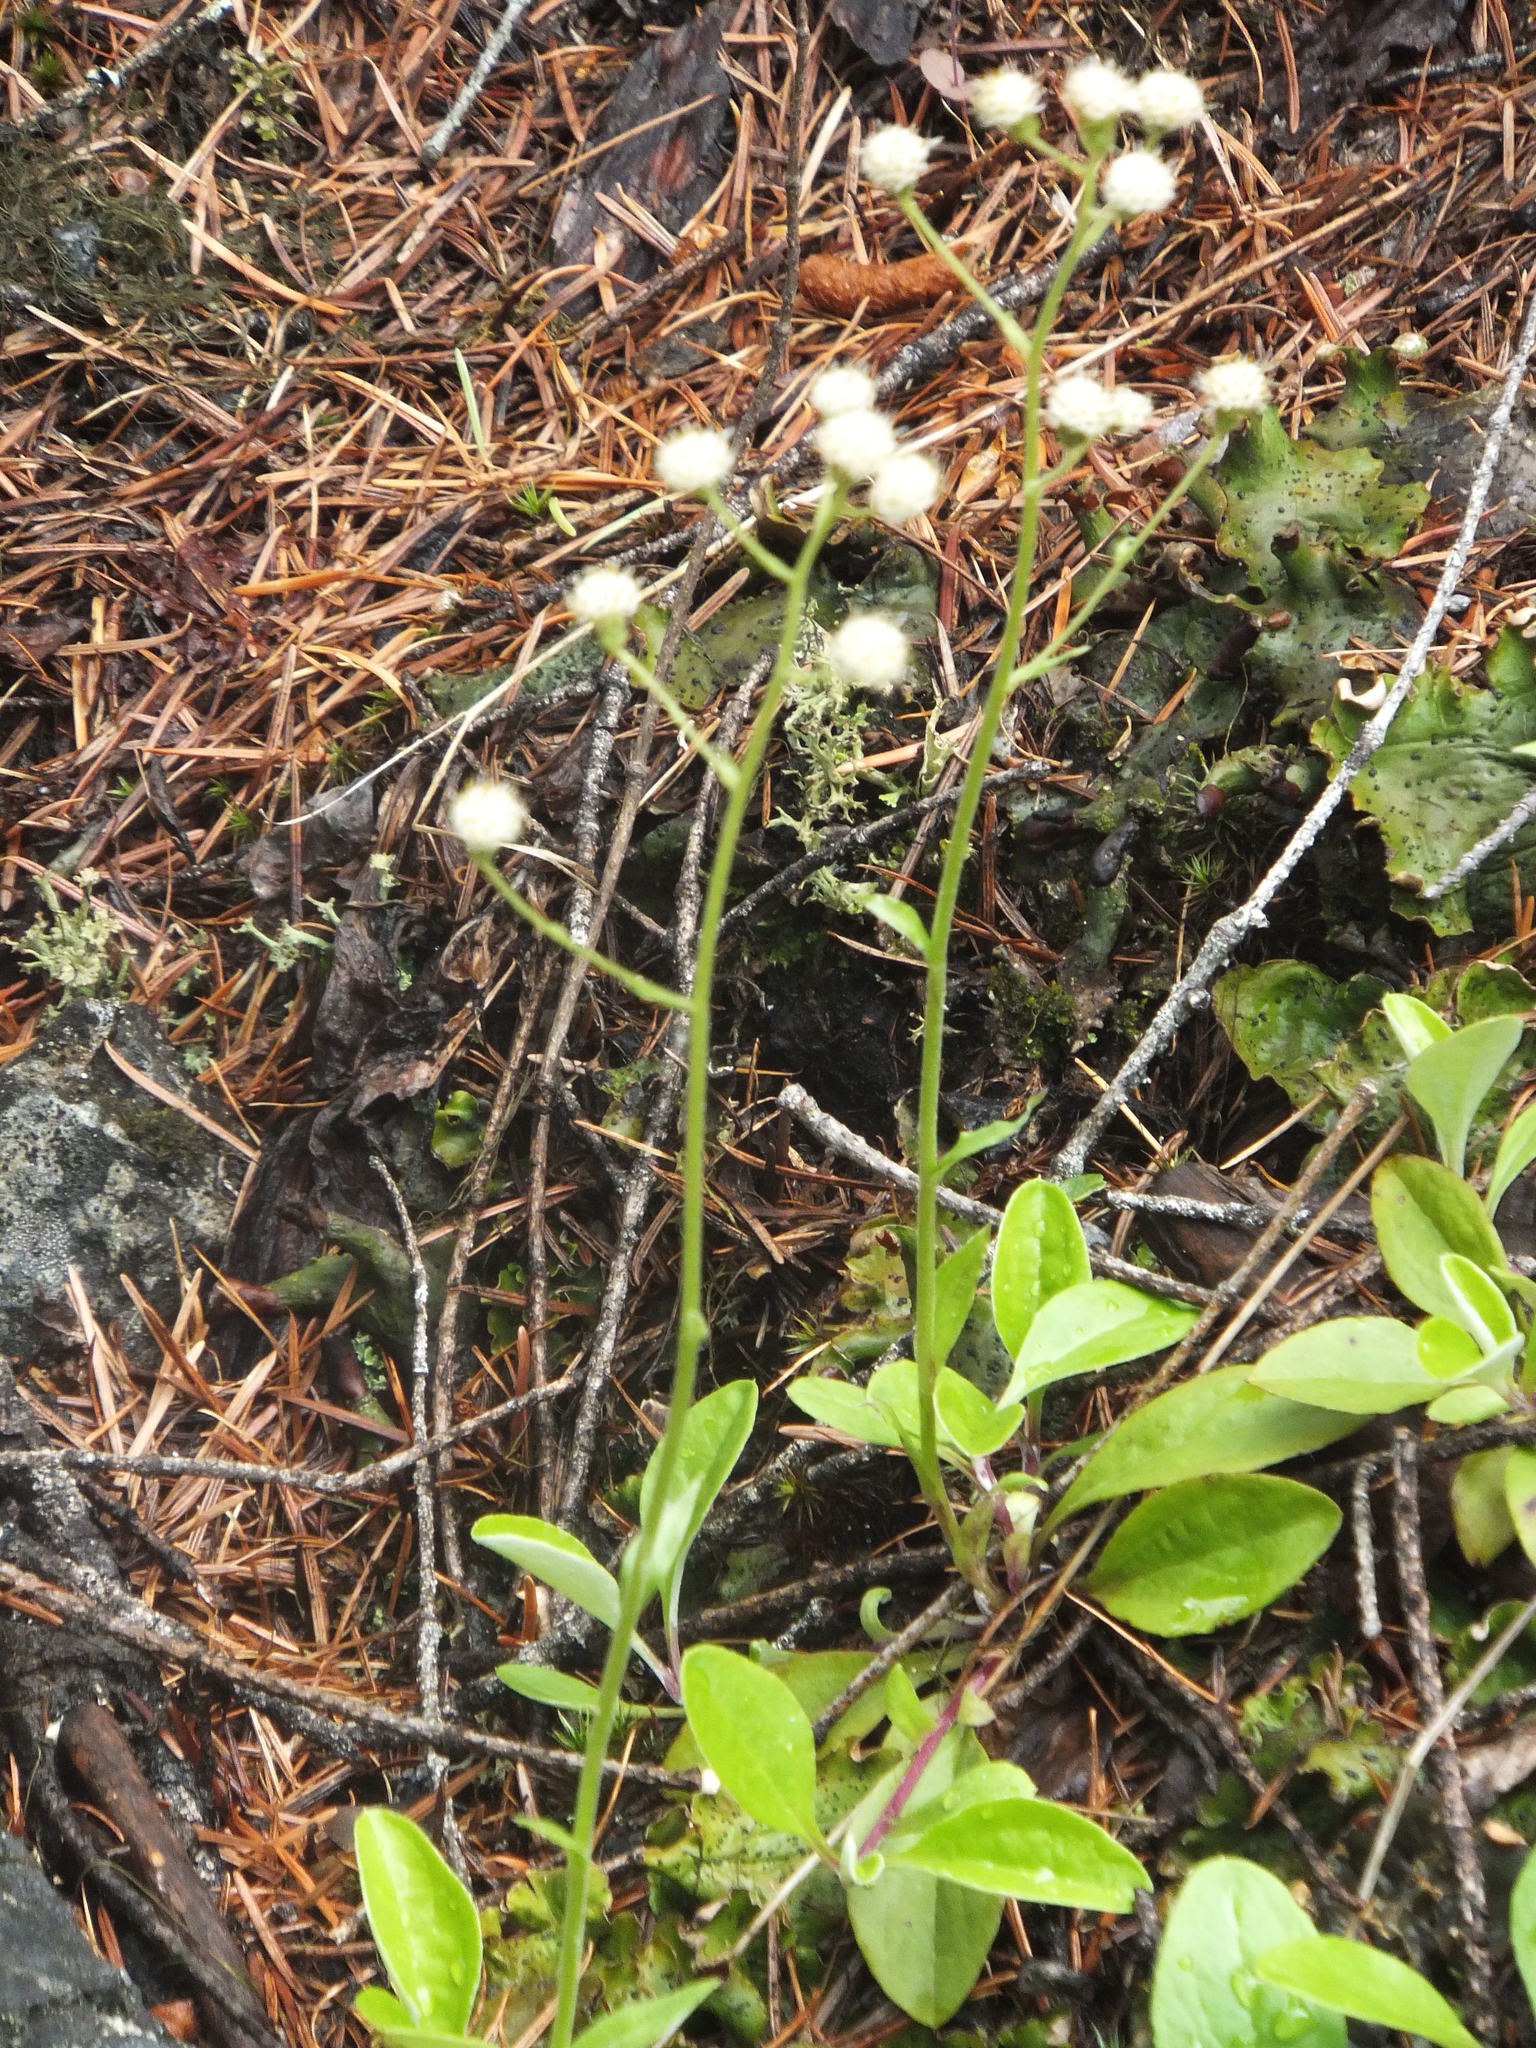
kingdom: Plantae
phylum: Tracheophyta
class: Magnoliopsida
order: Asterales
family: Asteraceae
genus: Antennaria
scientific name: Antennaria racemosa
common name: Racemose pussytoes
